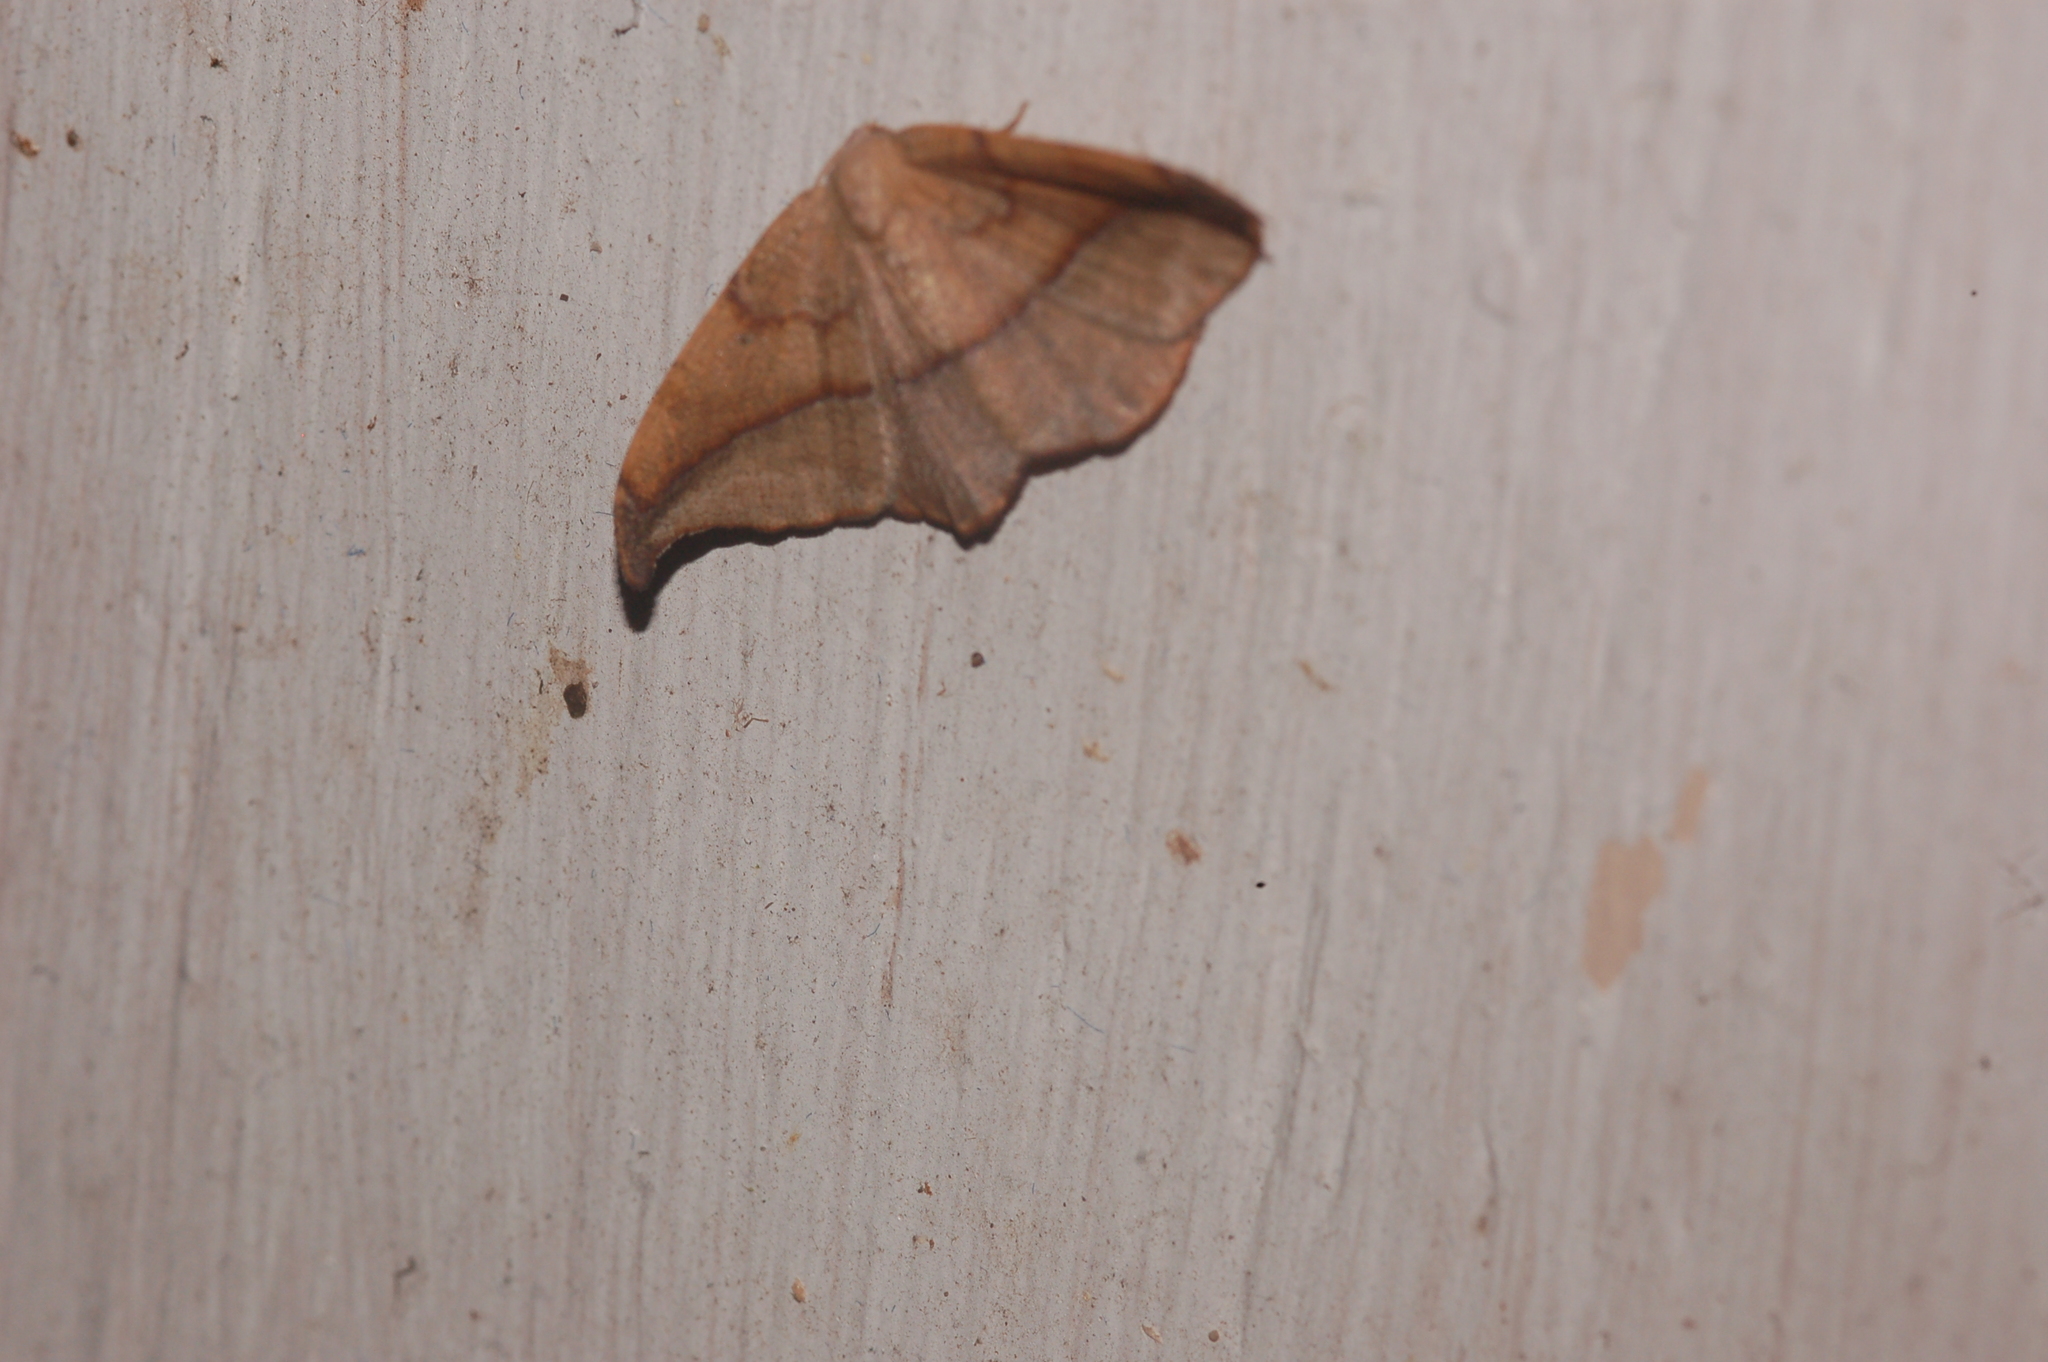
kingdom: Animalia
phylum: Arthropoda
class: Insecta
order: Lepidoptera
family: Geometridae
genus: Patalene
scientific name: Patalene olyzonaria
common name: Juniper geometer moth
